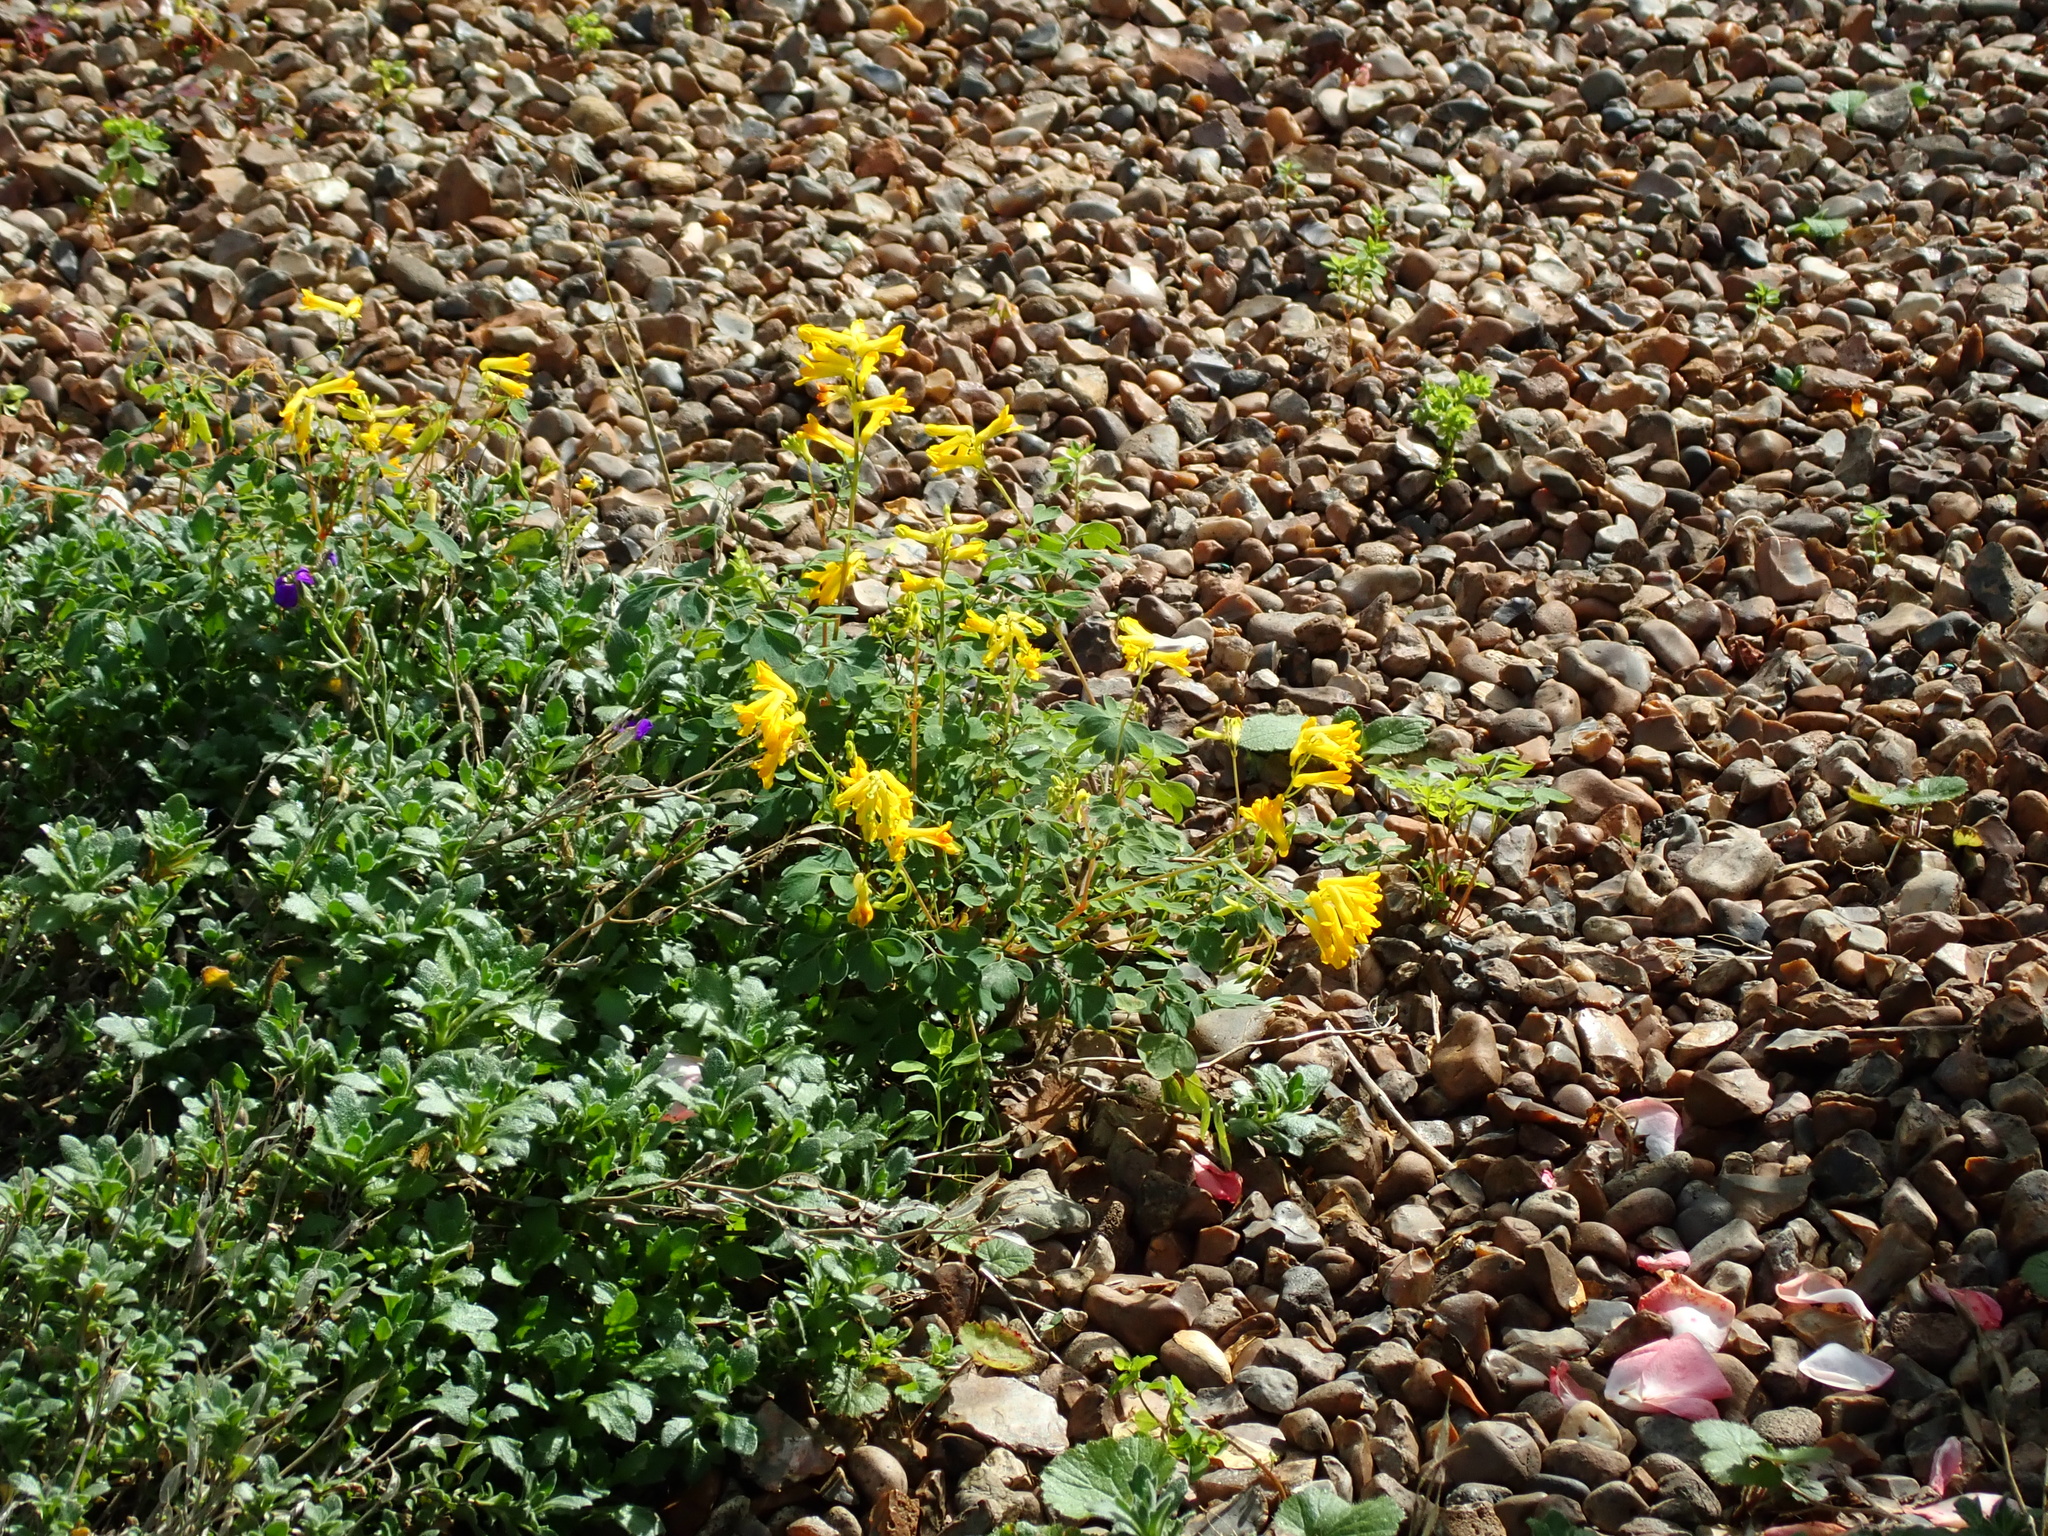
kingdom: Plantae
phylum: Tracheophyta
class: Magnoliopsida
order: Ranunculales
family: Papaveraceae
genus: Pseudofumaria
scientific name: Pseudofumaria lutea
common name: Yellow corydalis
